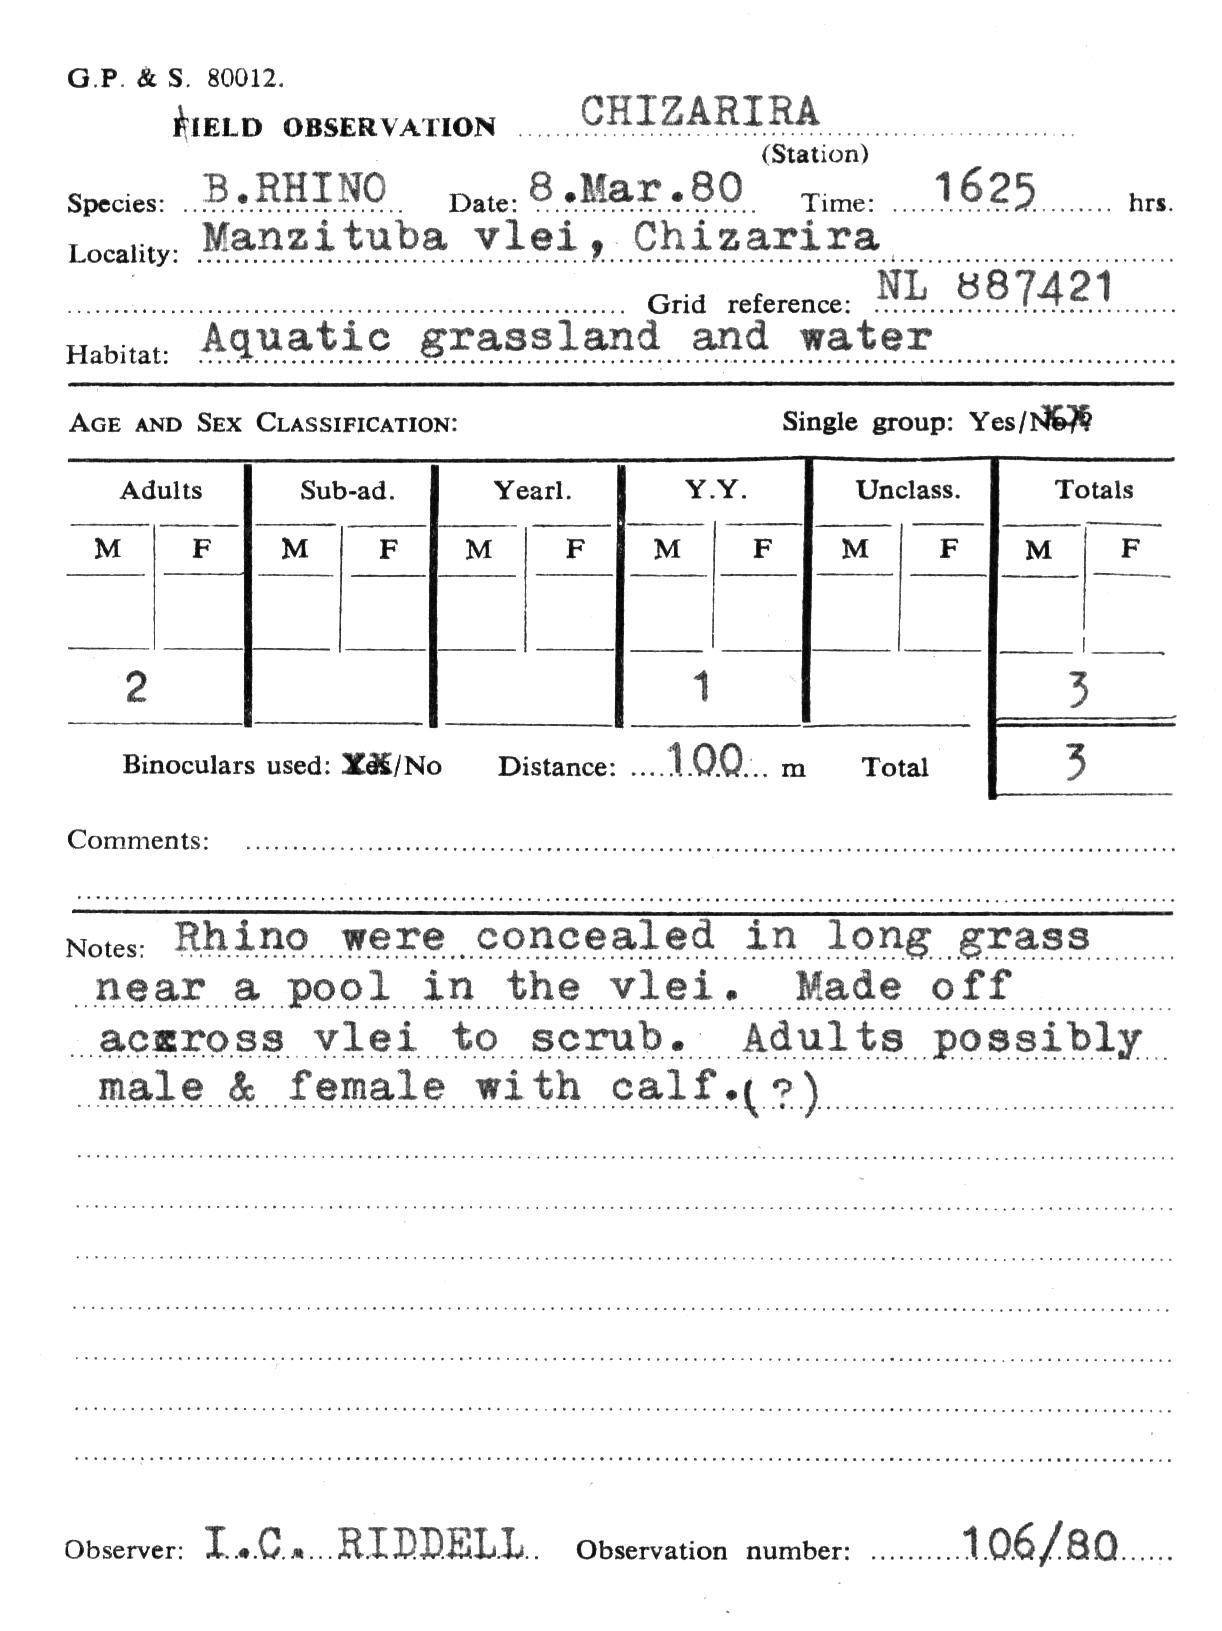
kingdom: Animalia
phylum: Chordata
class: Mammalia
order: Perissodactyla
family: Rhinocerotidae
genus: Diceros
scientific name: Diceros bicornis
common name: Black rhinoceros
